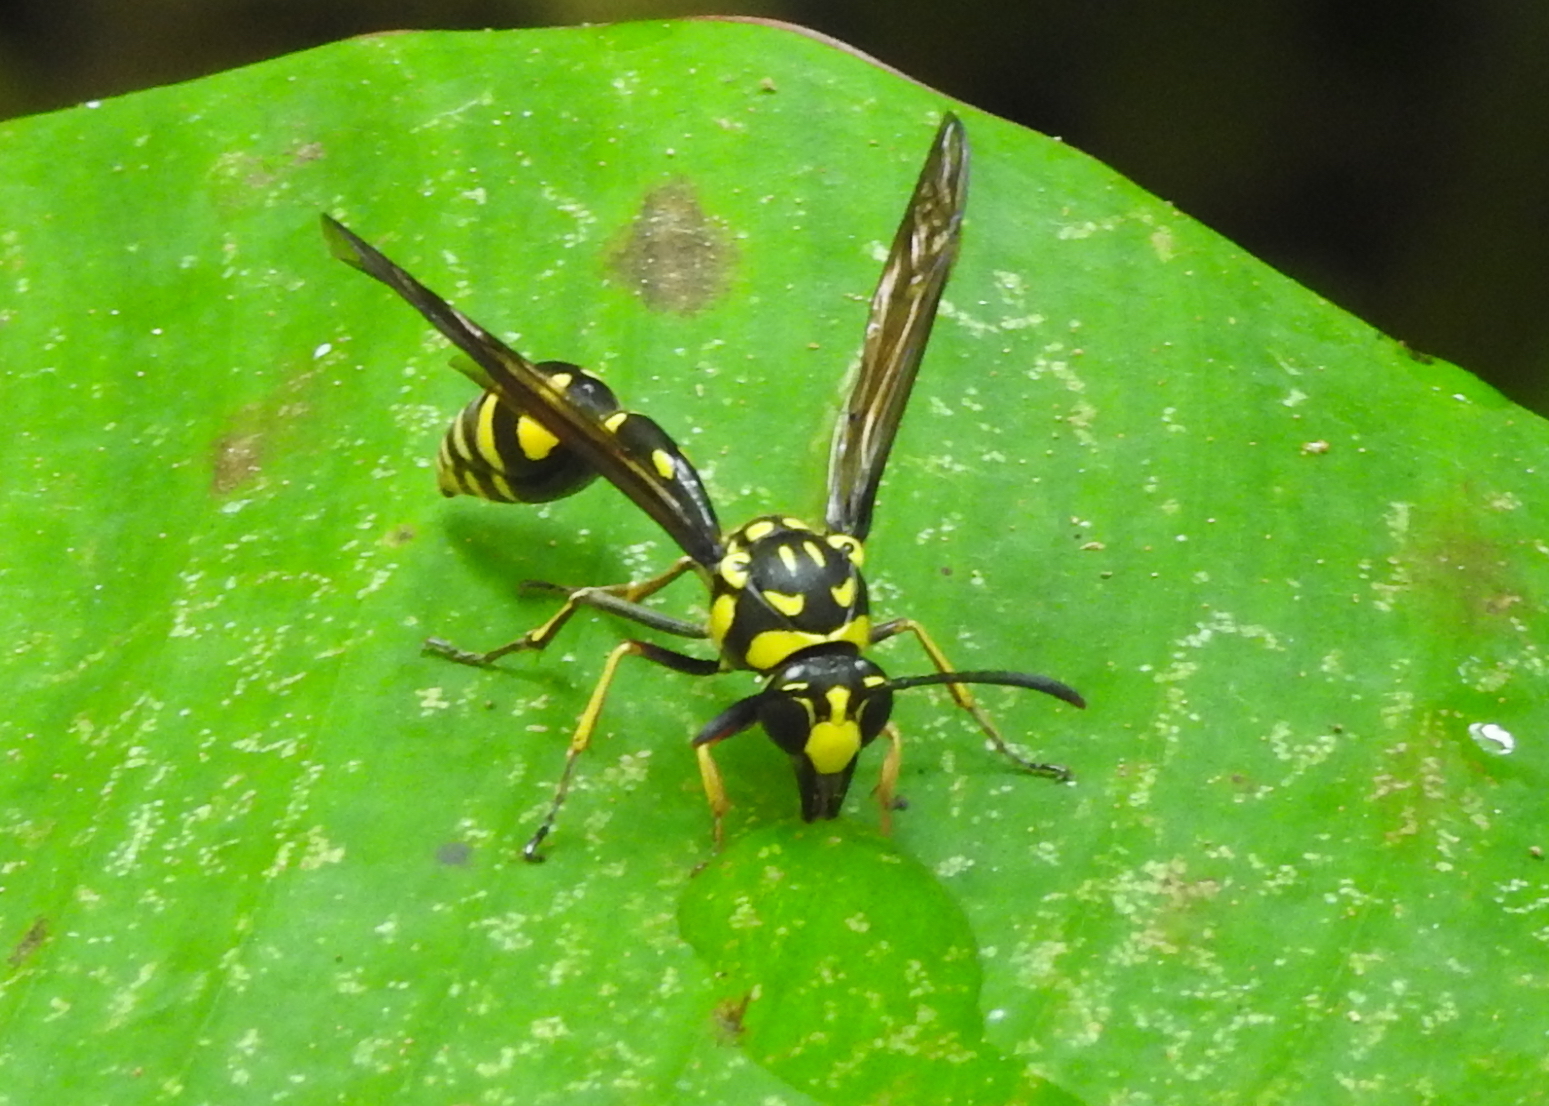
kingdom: Animalia
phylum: Arthropoda
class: Insecta
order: Hymenoptera
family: Eumenidae
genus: Phimenes
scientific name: Phimenes flavopictus
